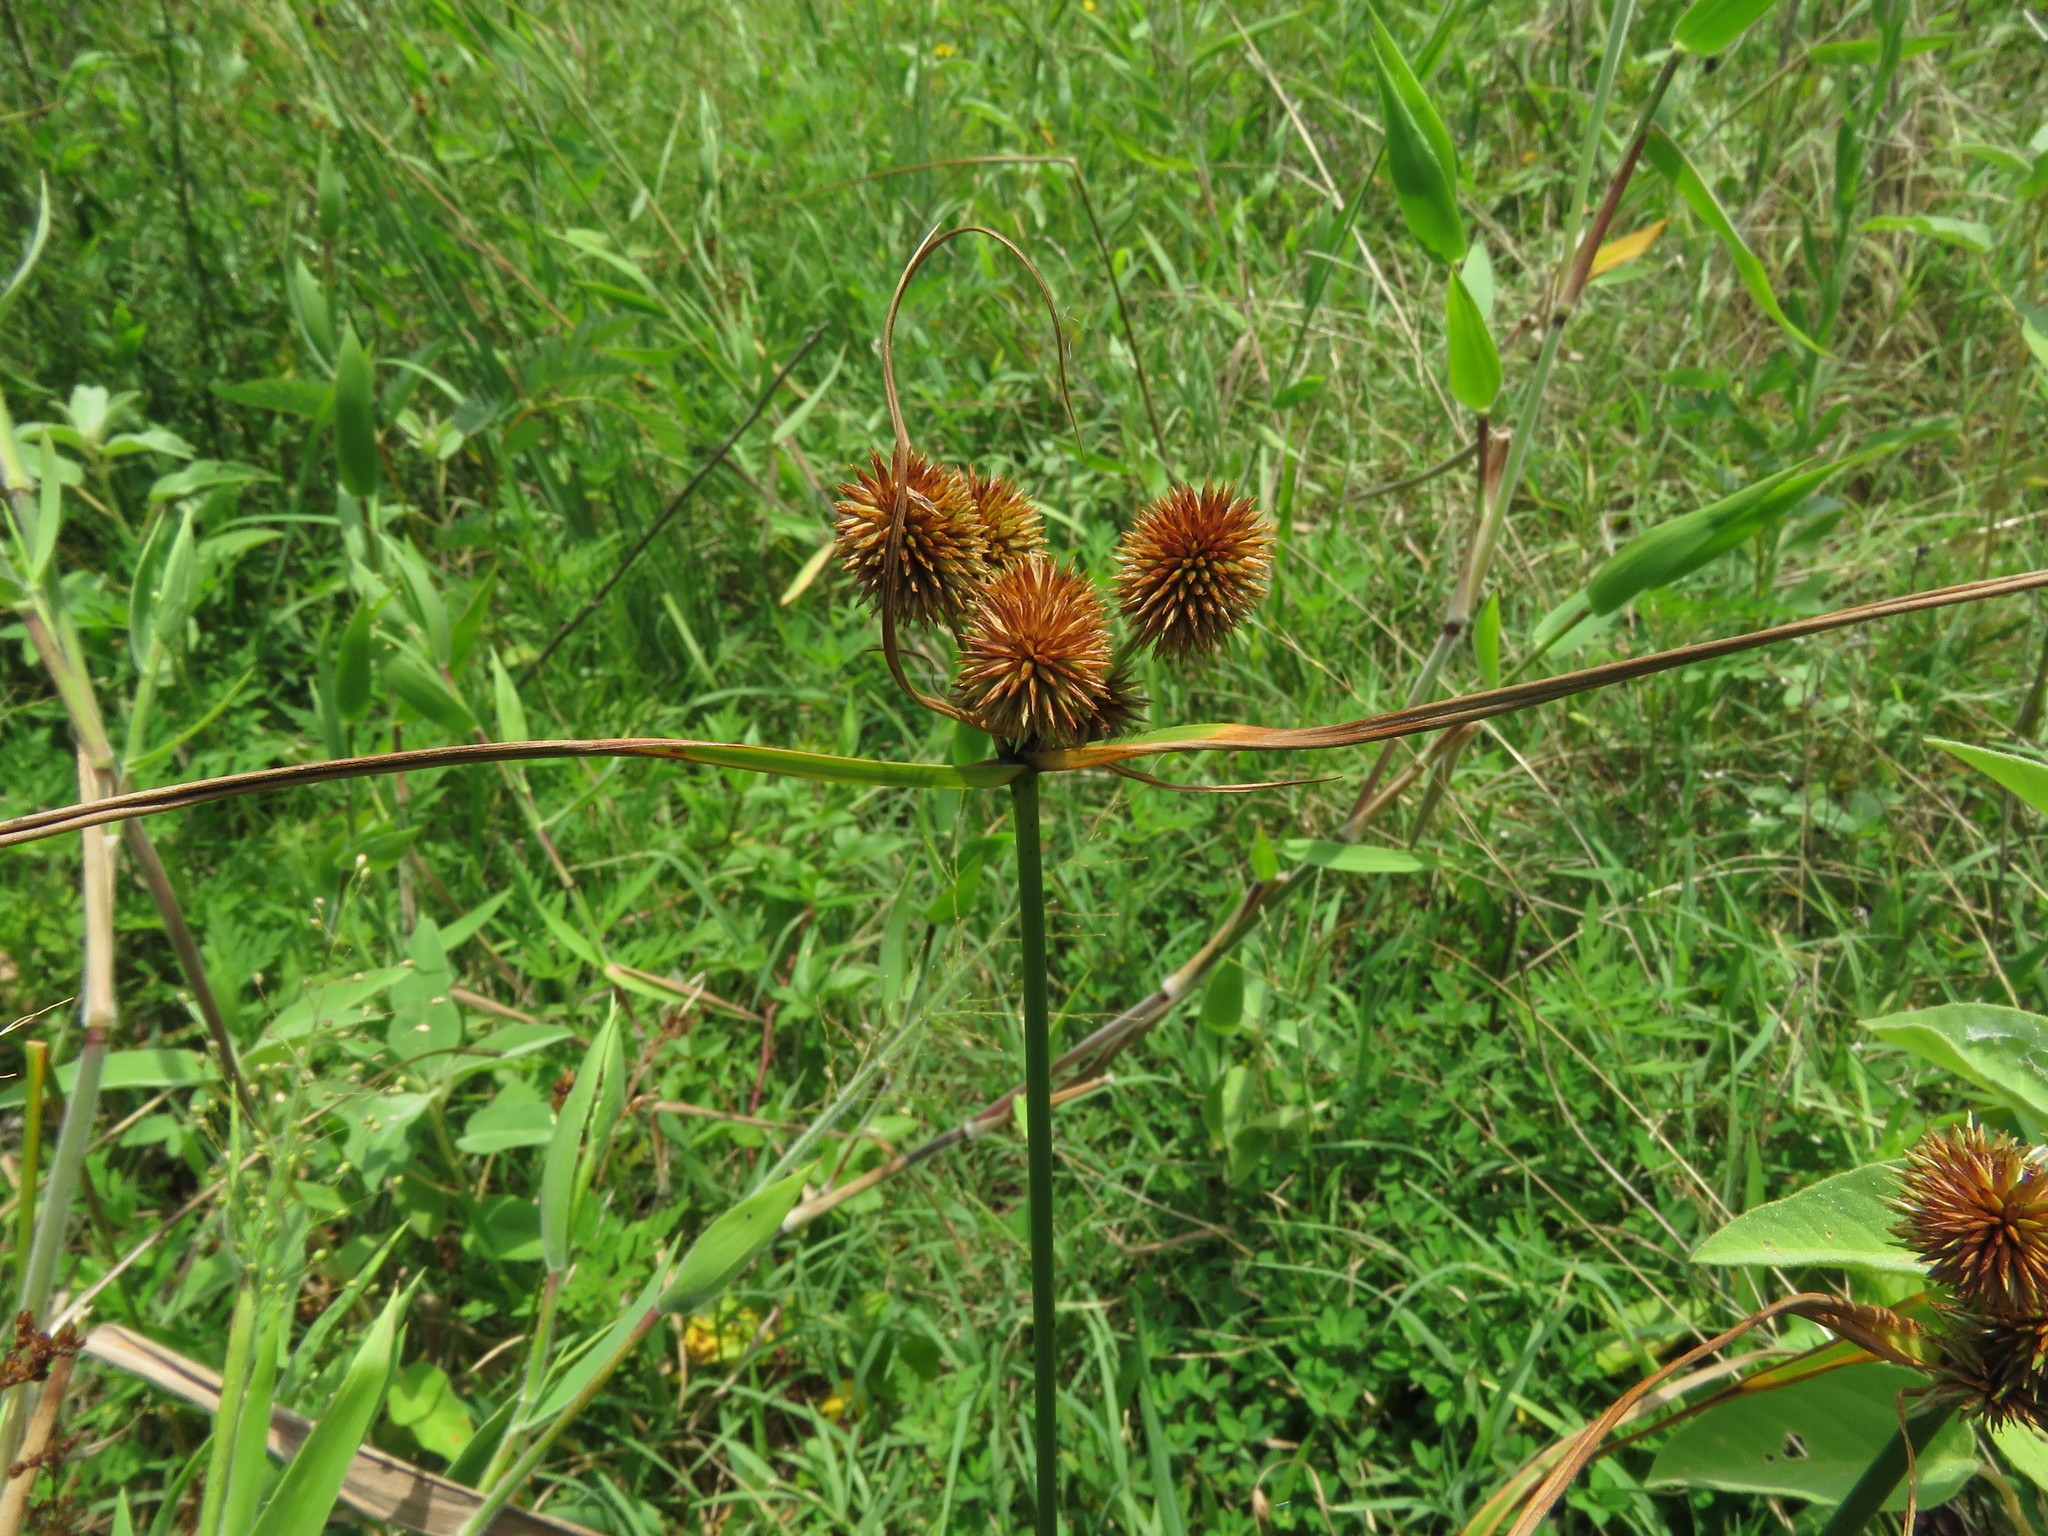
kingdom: Plantae
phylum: Tracheophyta
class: Liliopsida
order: Poales
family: Cyperaceae
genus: Cyperus
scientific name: Cyperus echinatus
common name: Teasel sedge
